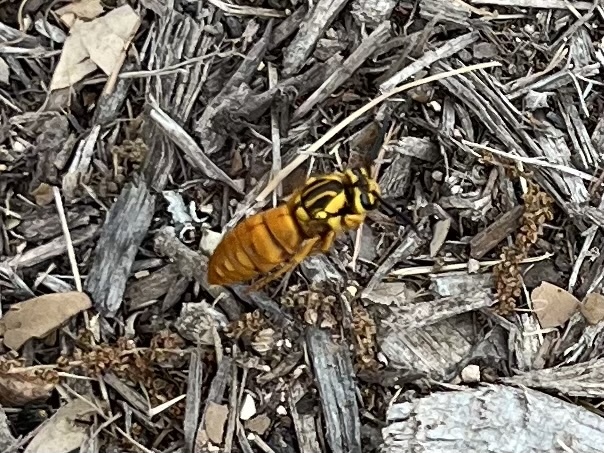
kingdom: Animalia
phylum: Arthropoda
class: Insecta
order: Hymenoptera
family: Vespidae
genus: Vespula
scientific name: Vespula squamosa
